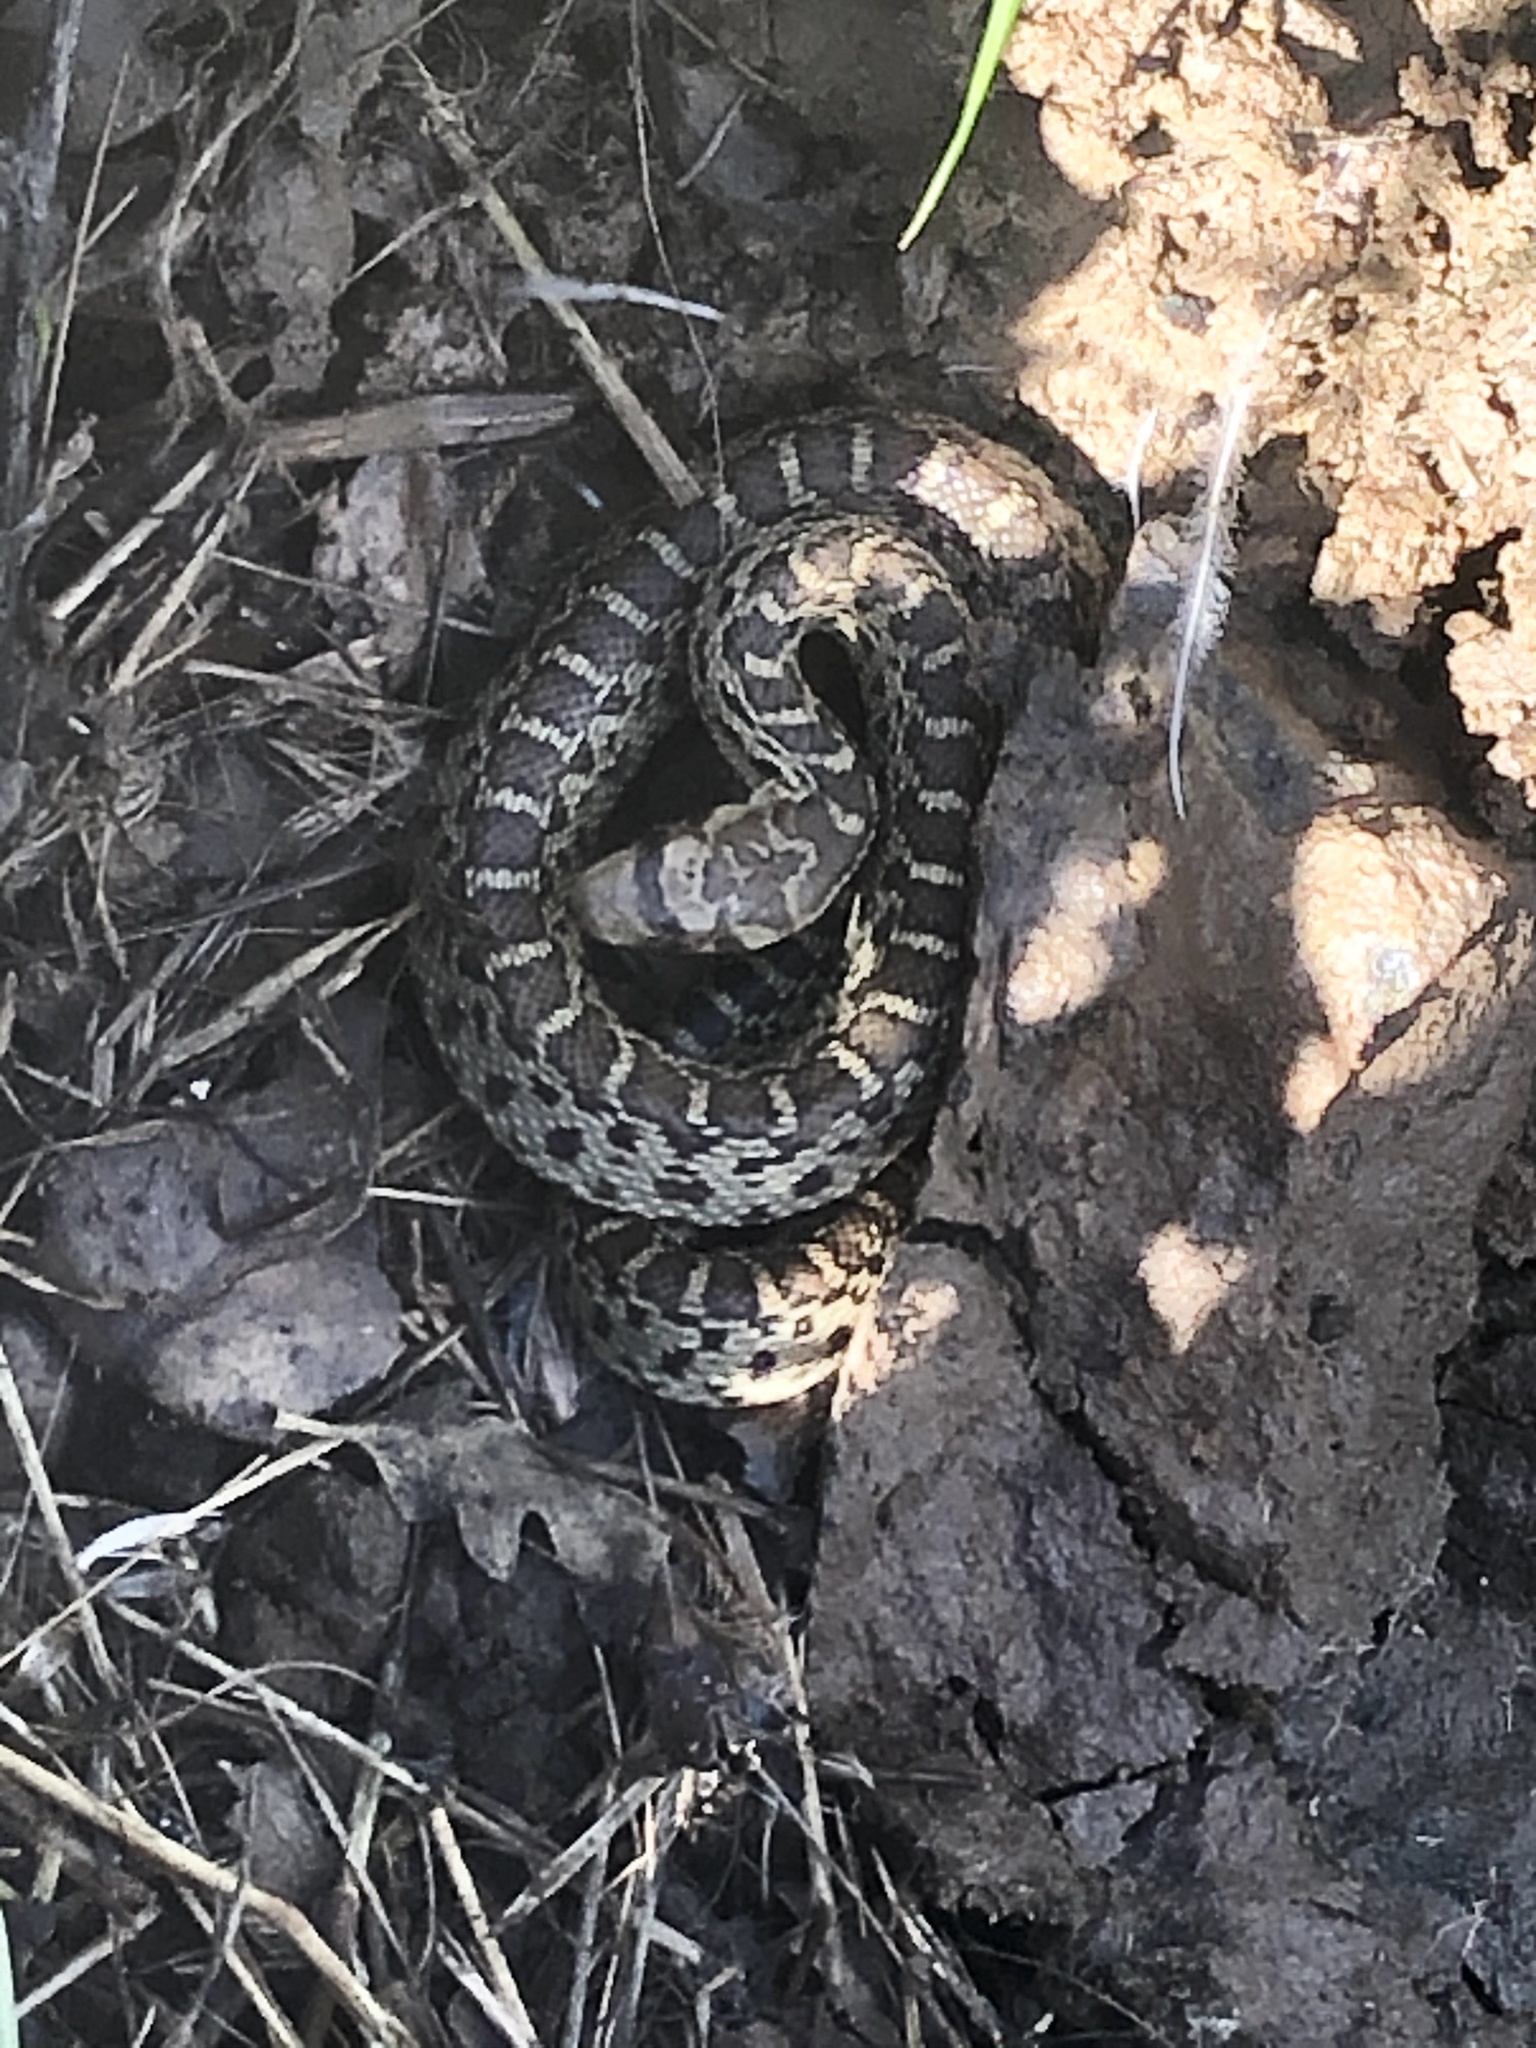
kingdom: Animalia
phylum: Chordata
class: Squamata
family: Colubridae
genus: Pituophis
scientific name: Pituophis catenifer
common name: Gopher snake
